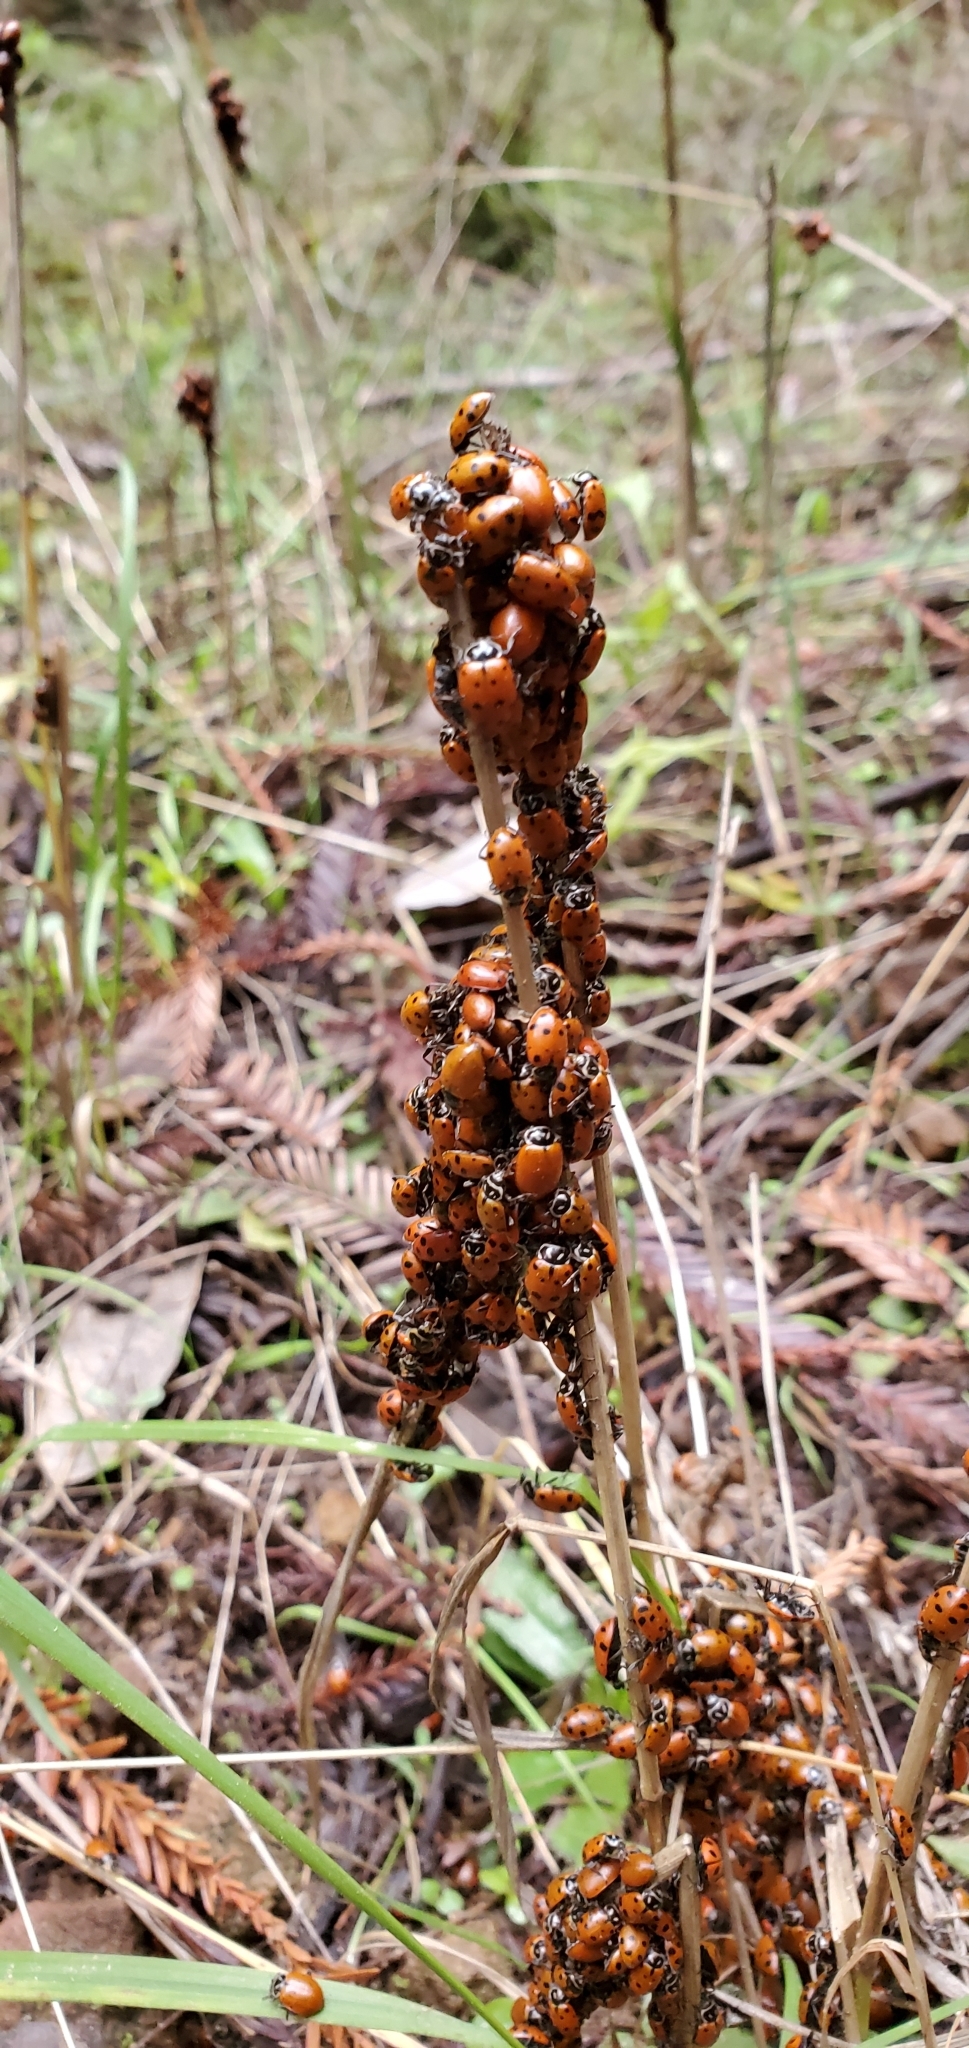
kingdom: Animalia
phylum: Arthropoda
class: Insecta
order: Coleoptera
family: Coccinellidae
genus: Hippodamia
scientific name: Hippodamia convergens
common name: Convergent lady beetle
